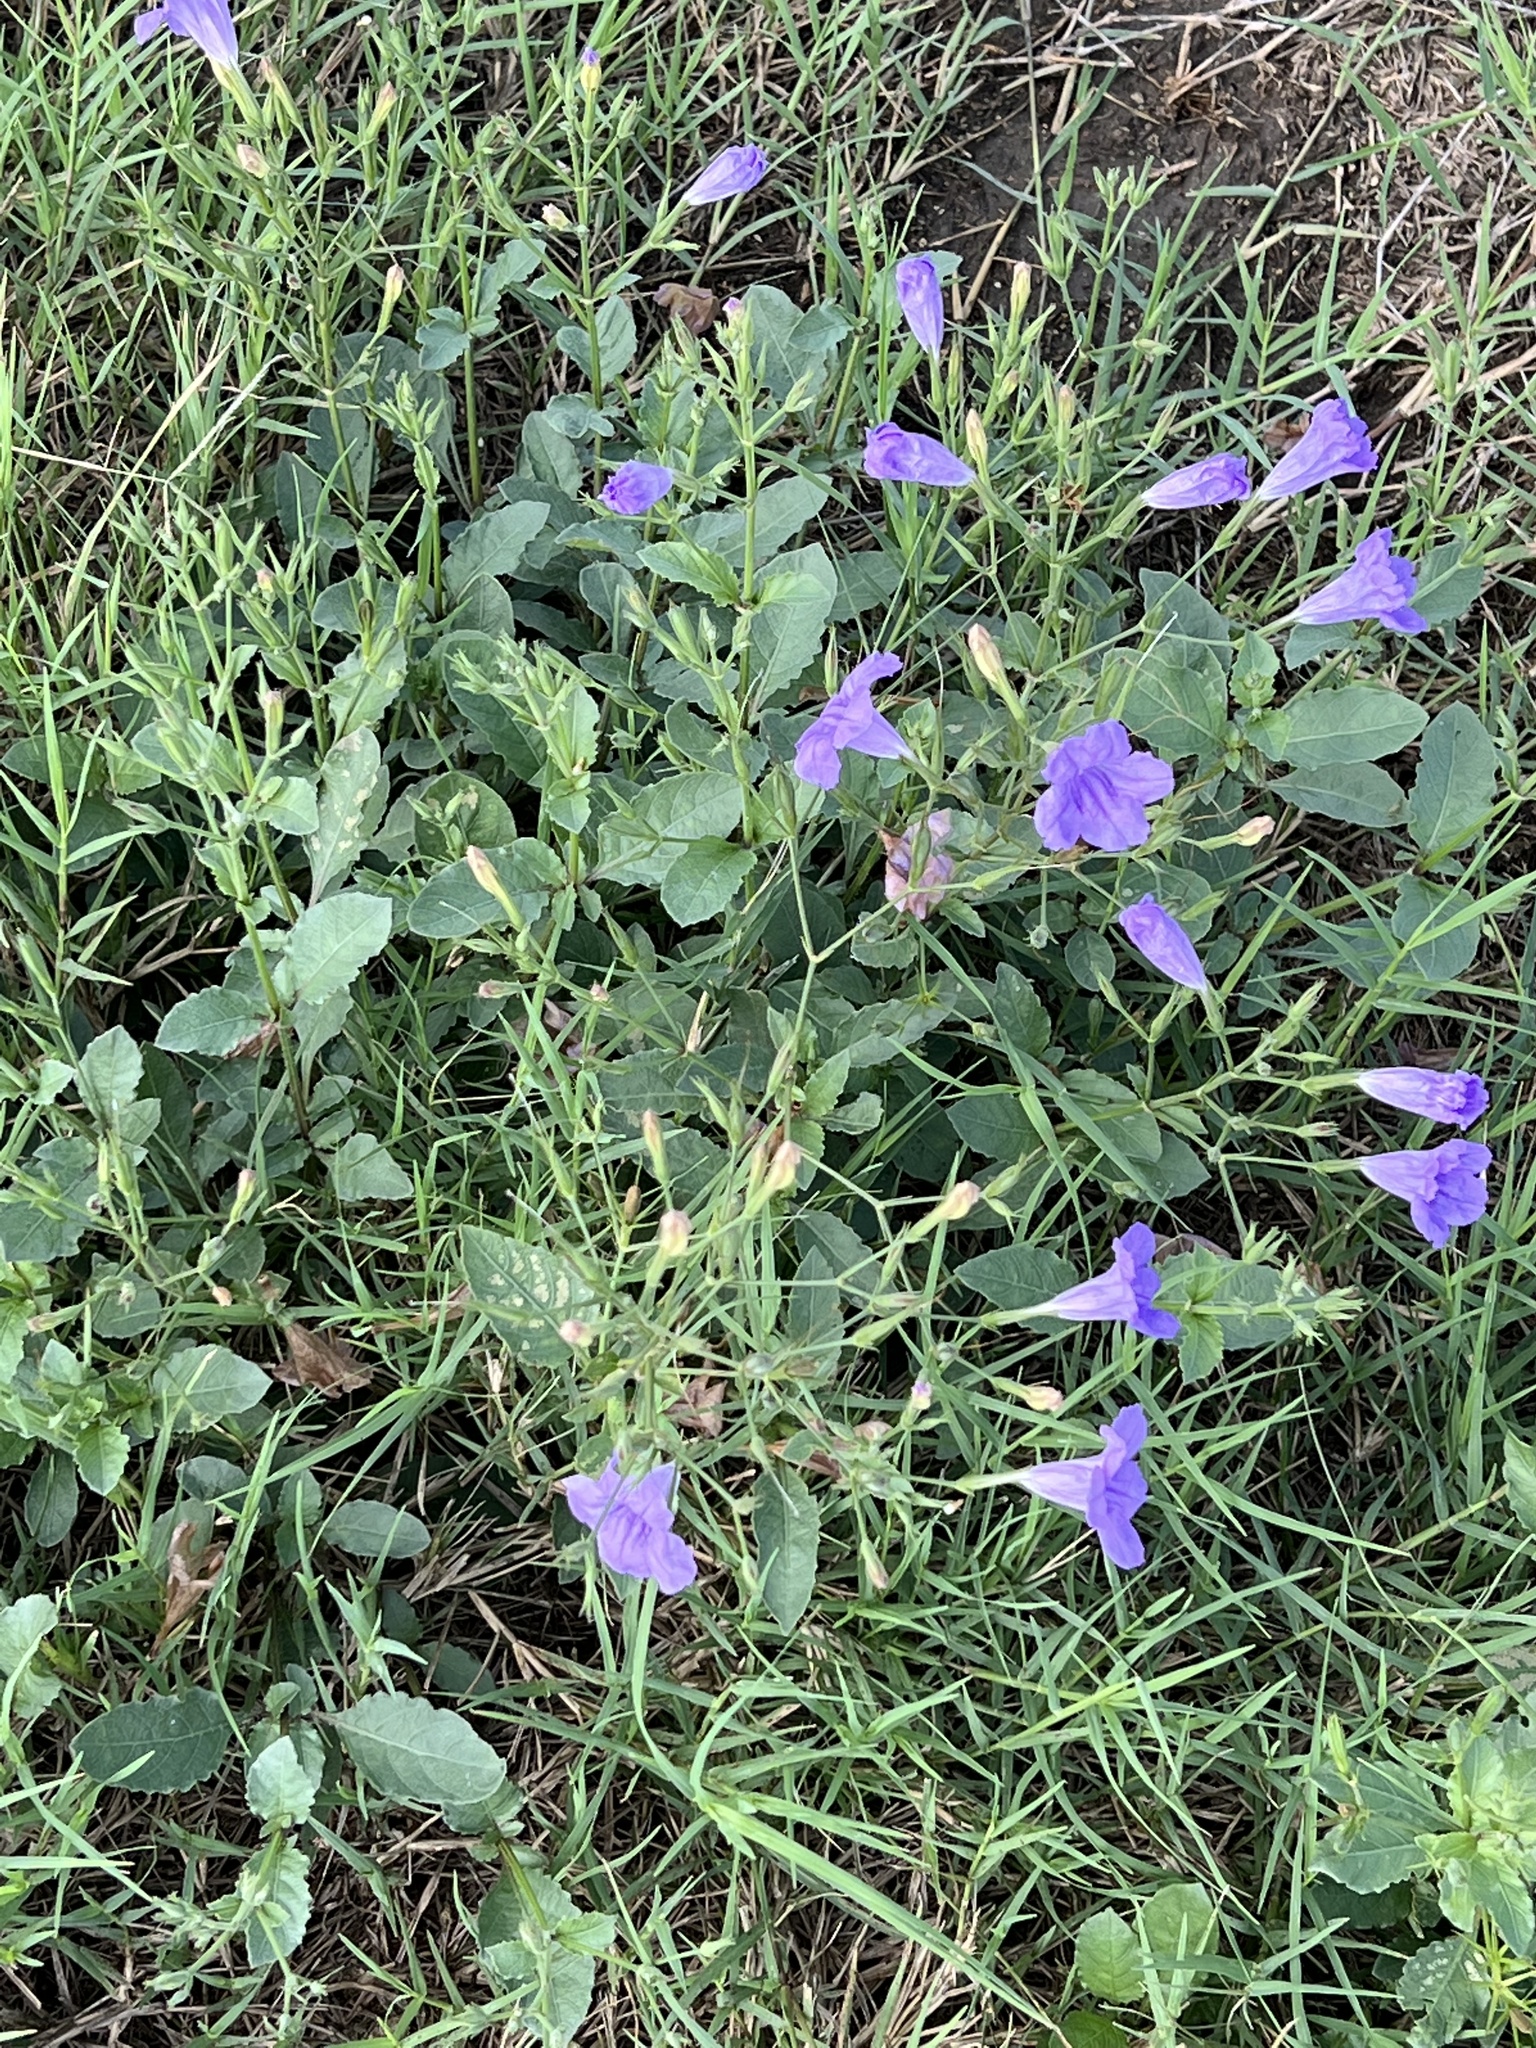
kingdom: Plantae
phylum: Tracheophyta
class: Magnoliopsida
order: Lamiales
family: Acanthaceae
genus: Ruellia
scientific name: Ruellia ciliatiflora
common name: Hairyflower wild petunia
